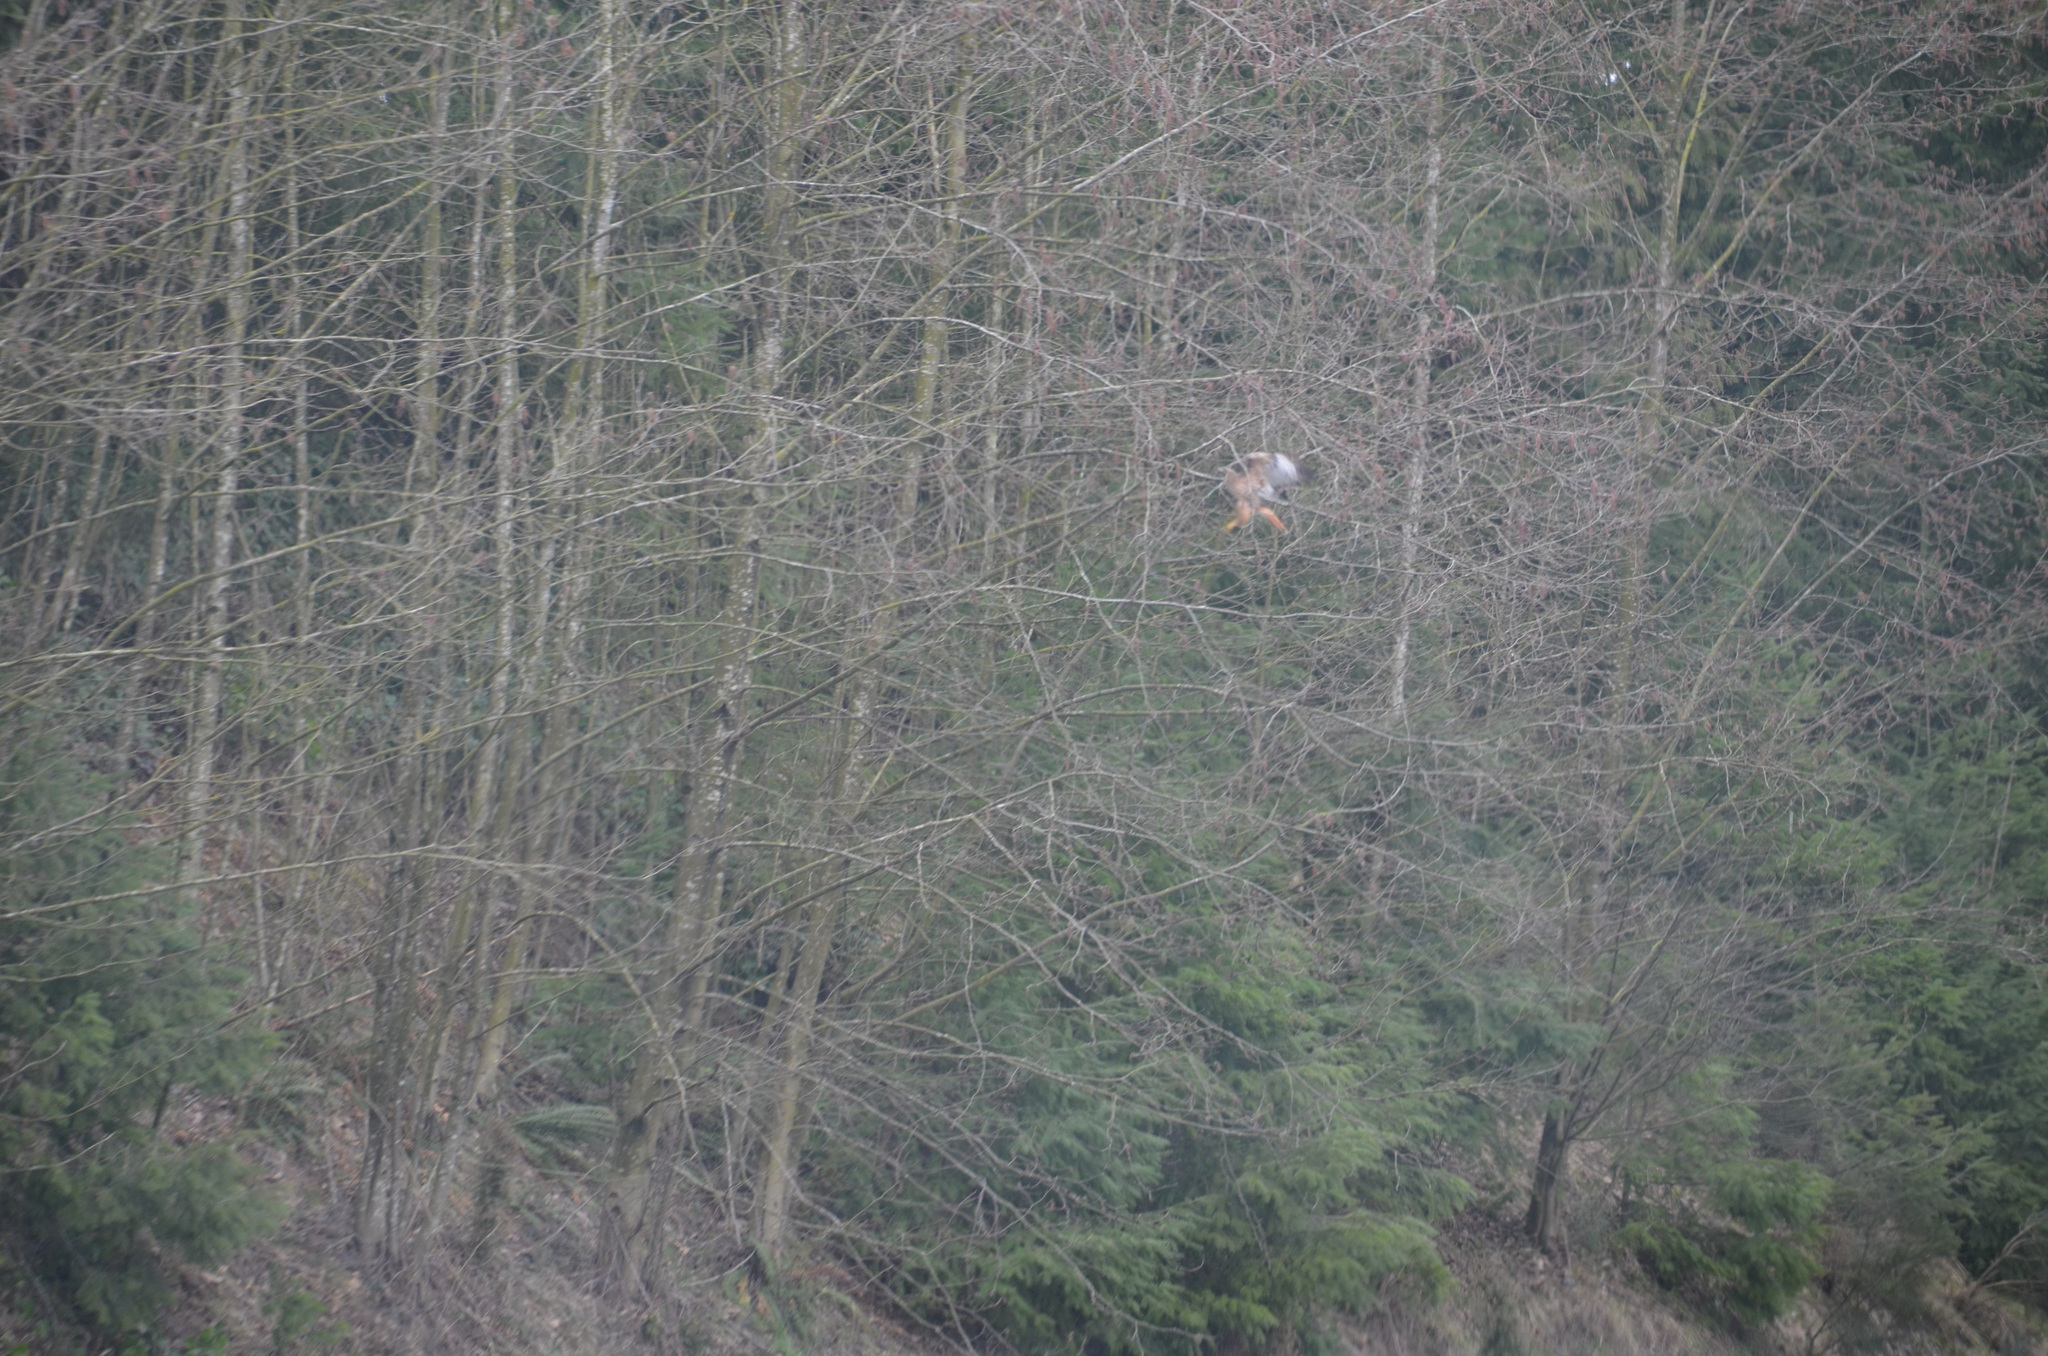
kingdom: Animalia
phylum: Chordata
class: Aves
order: Accipitriformes
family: Accipitridae
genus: Buteo
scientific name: Buteo jamaicensis
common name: Red-tailed hawk
